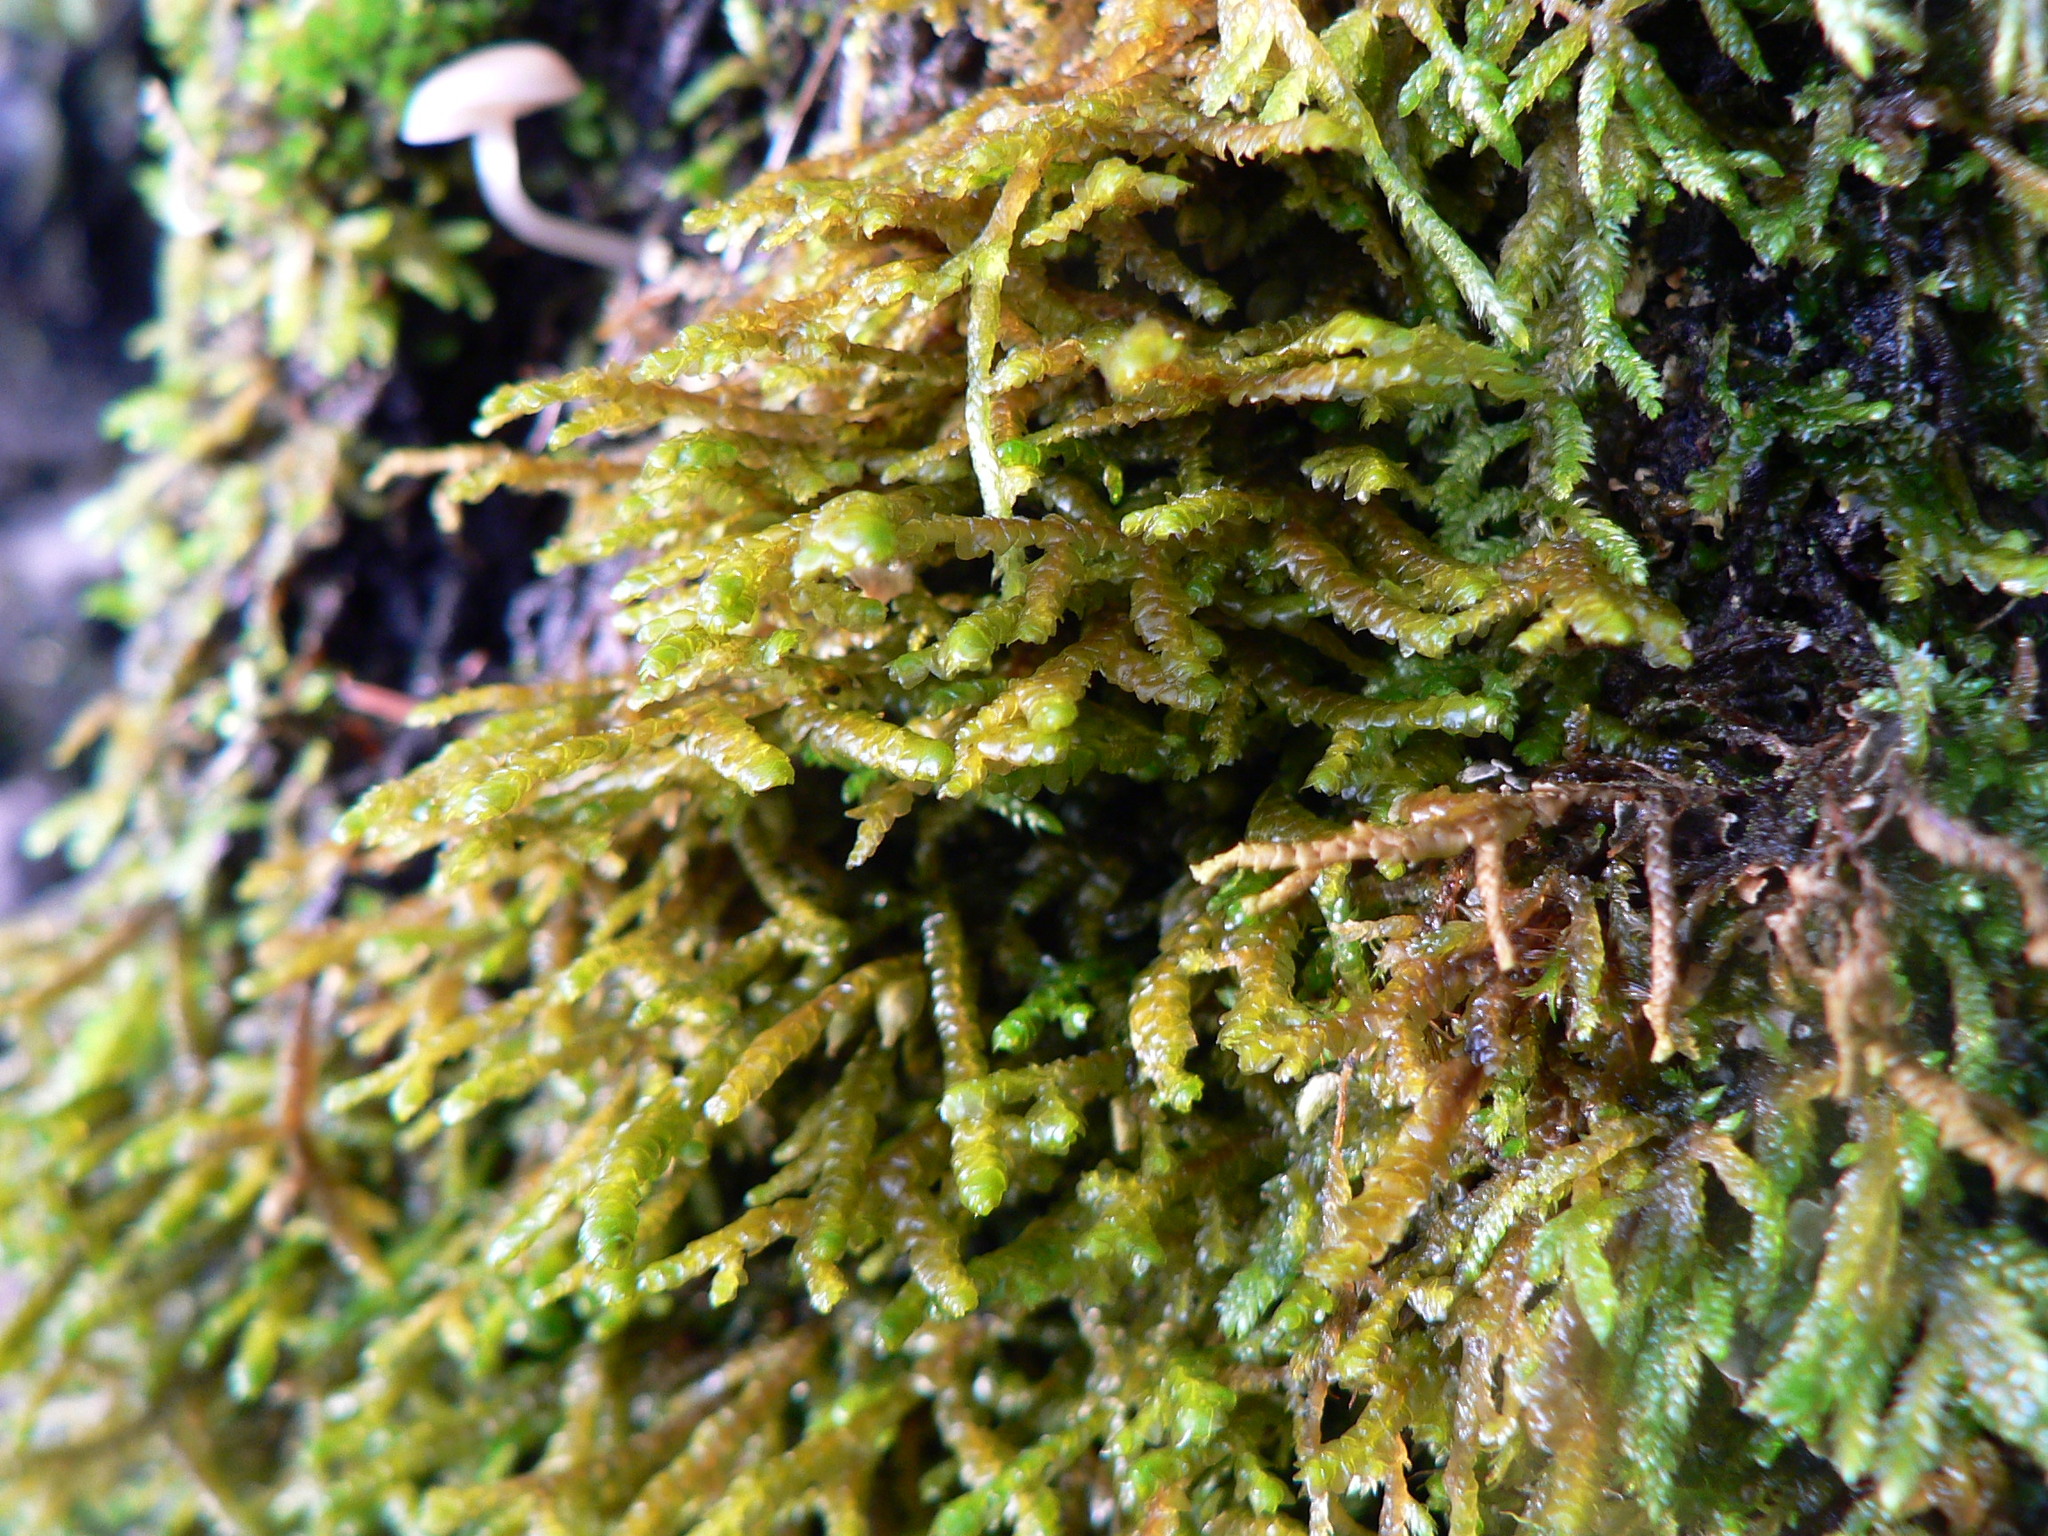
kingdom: Plantae
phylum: Marchantiophyta
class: Jungermanniopsida
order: Porellales
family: Porellaceae
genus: Porella
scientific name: Porella navicularis
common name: Tree ruffle liverwort
